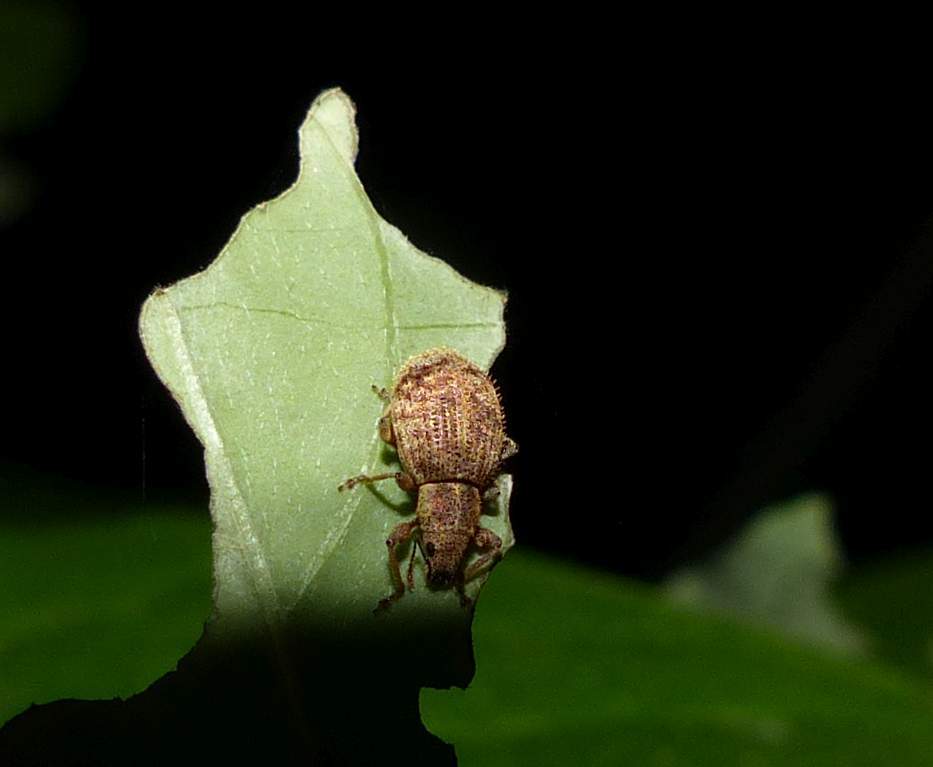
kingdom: Animalia
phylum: Arthropoda
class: Insecta
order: Coleoptera
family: Curculionidae
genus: Sciaphilus
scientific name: Sciaphilus asperatus
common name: Weevil
